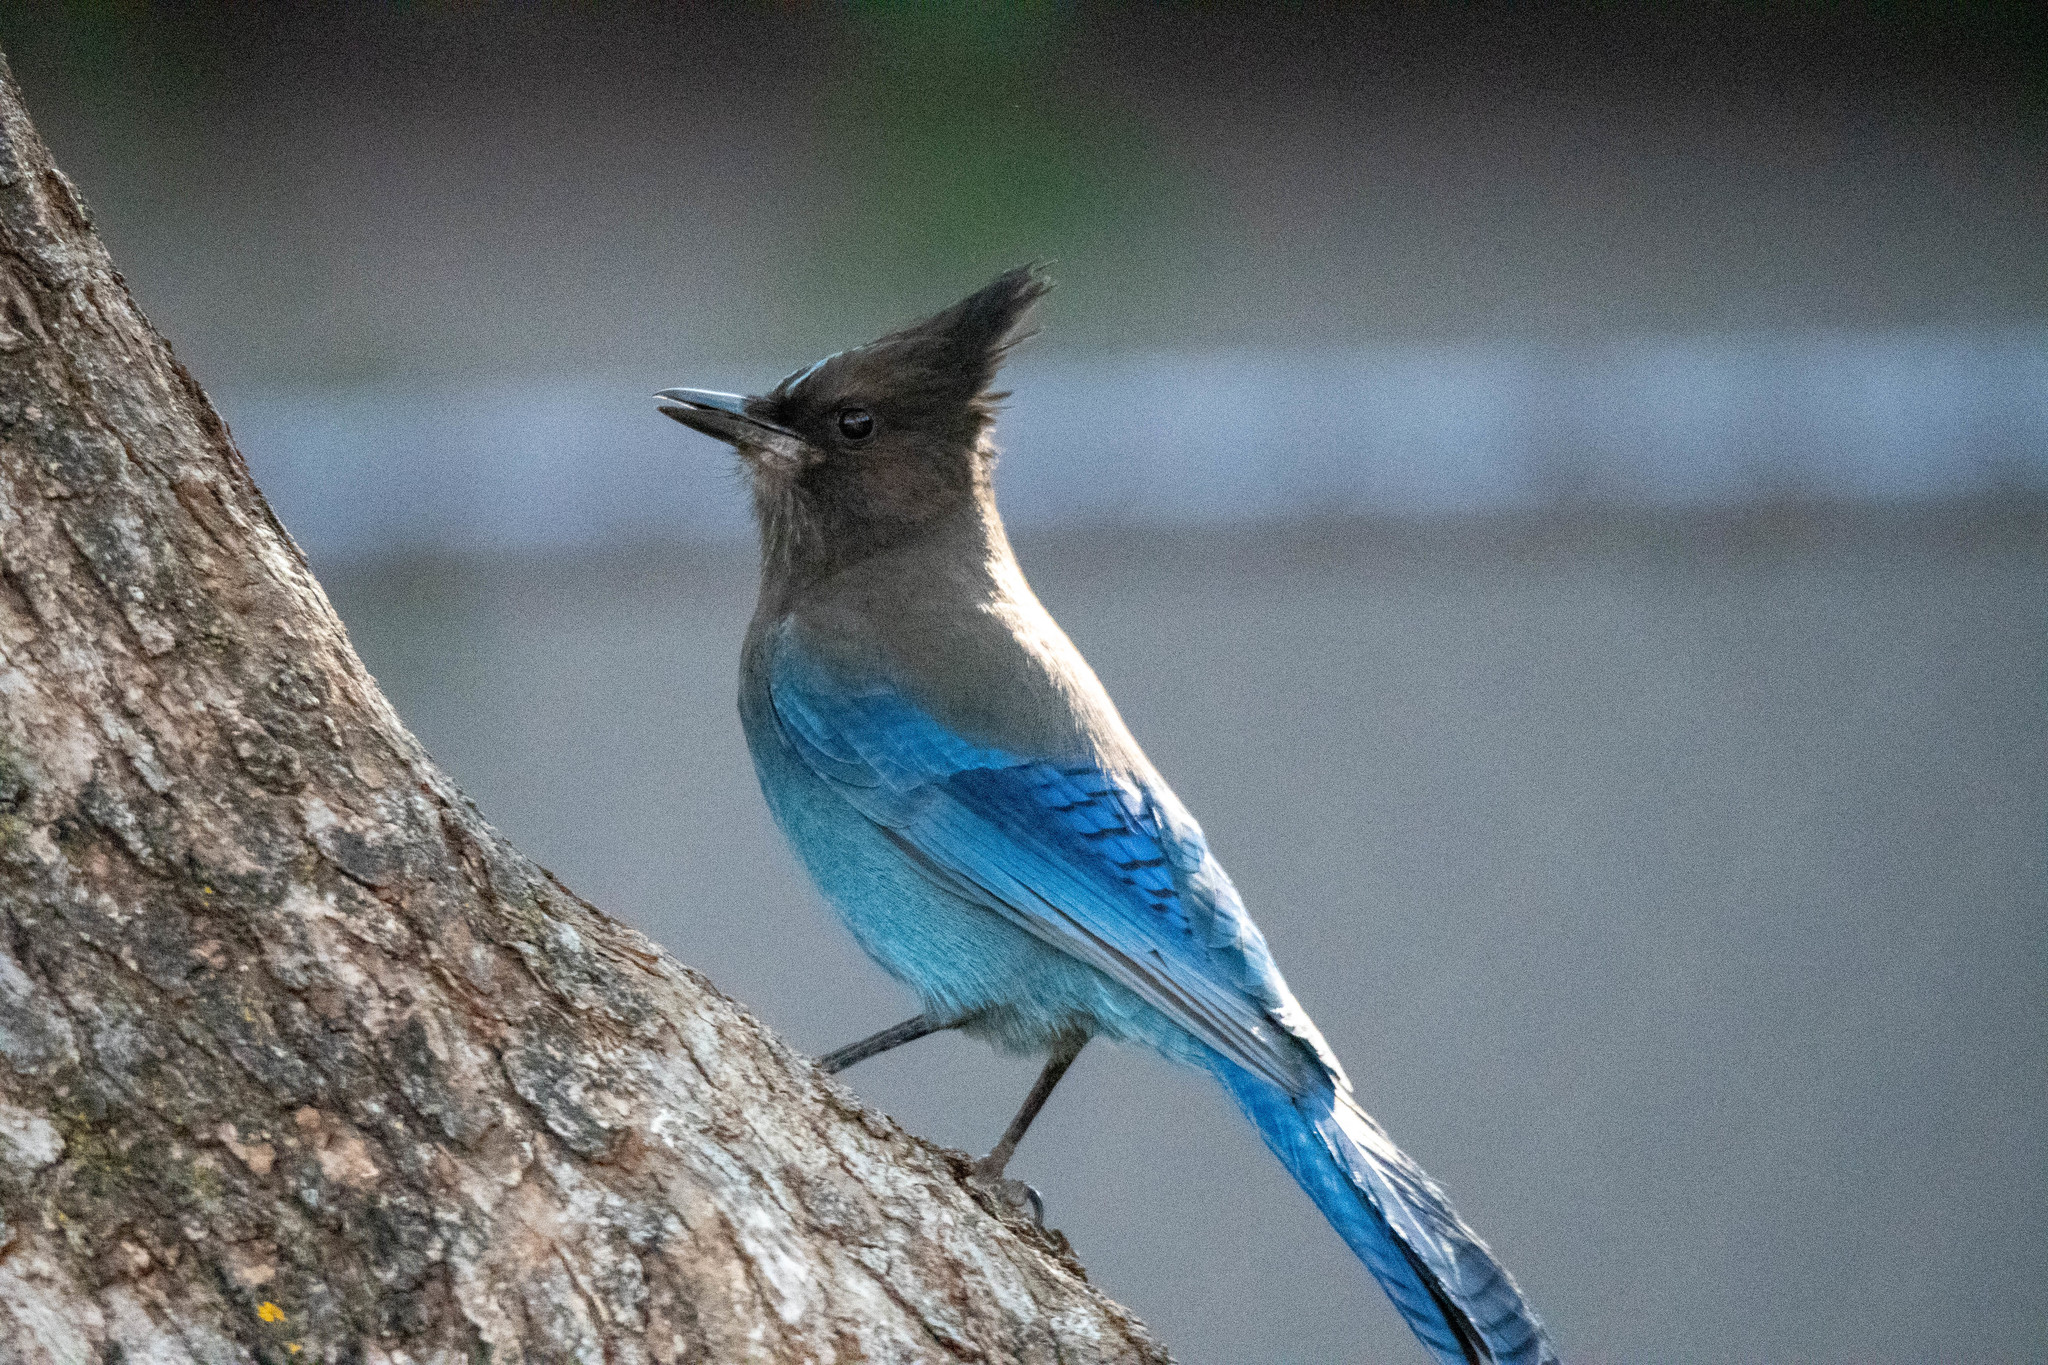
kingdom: Animalia
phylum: Chordata
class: Aves
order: Passeriformes
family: Corvidae
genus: Cyanocitta
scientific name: Cyanocitta stelleri
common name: Steller's jay
